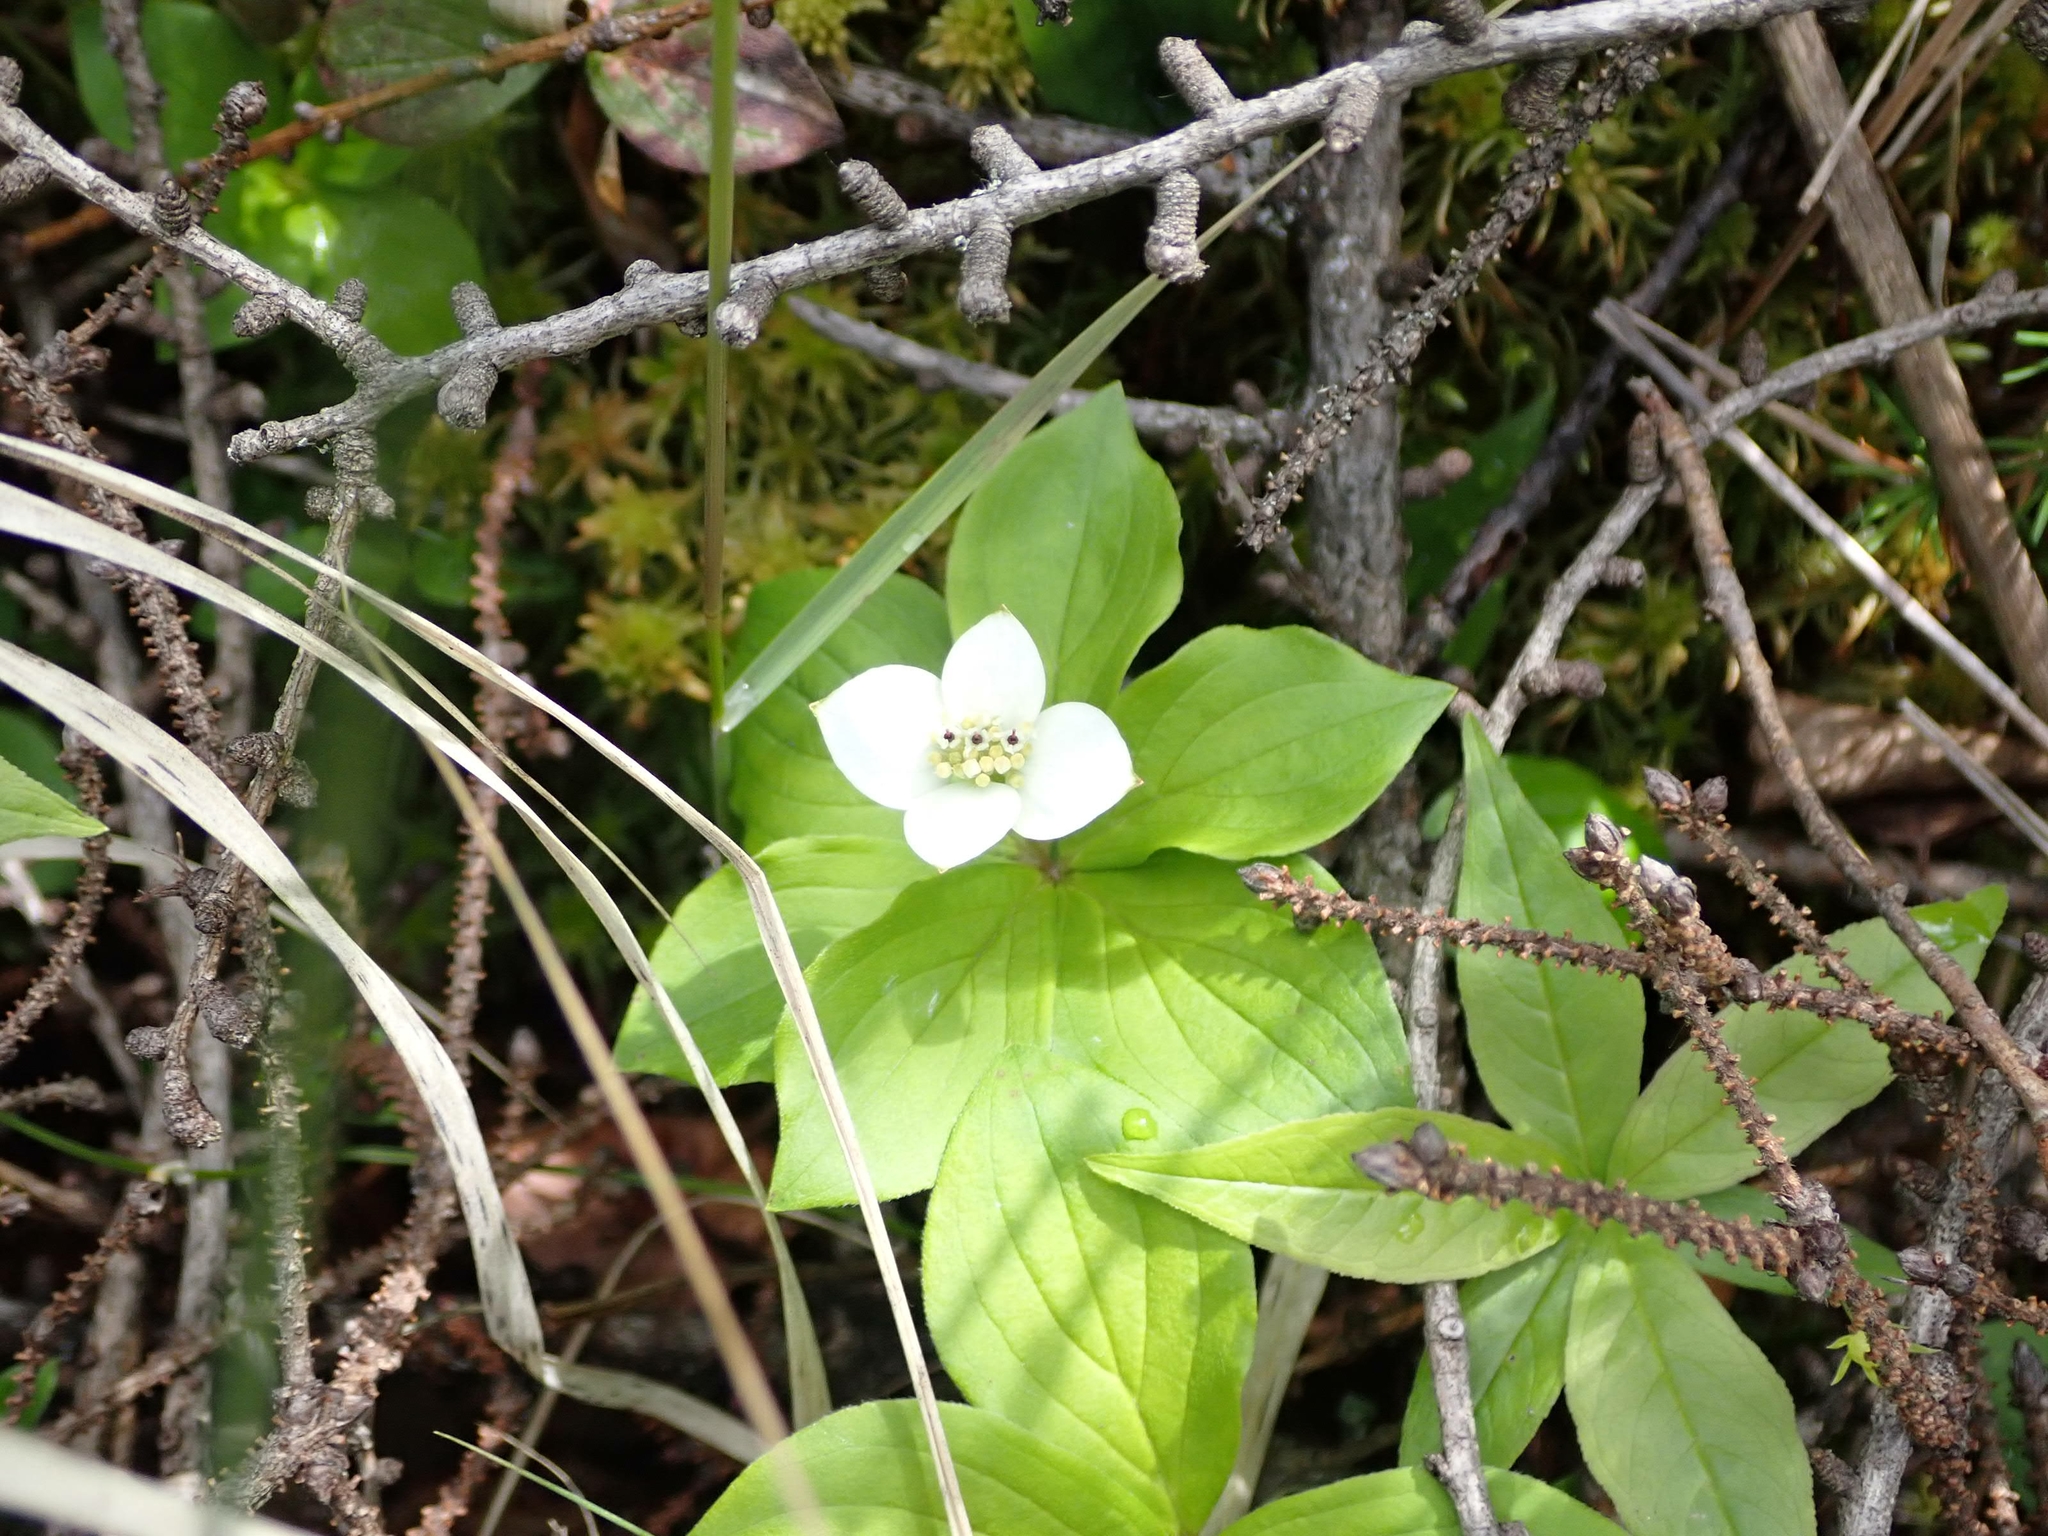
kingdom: Plantae
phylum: Tracheophyta
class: Magnoliopsida
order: Cornales
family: Cornaceae
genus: Cornus
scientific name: Cornus canadensis
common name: Creeping dogwood
